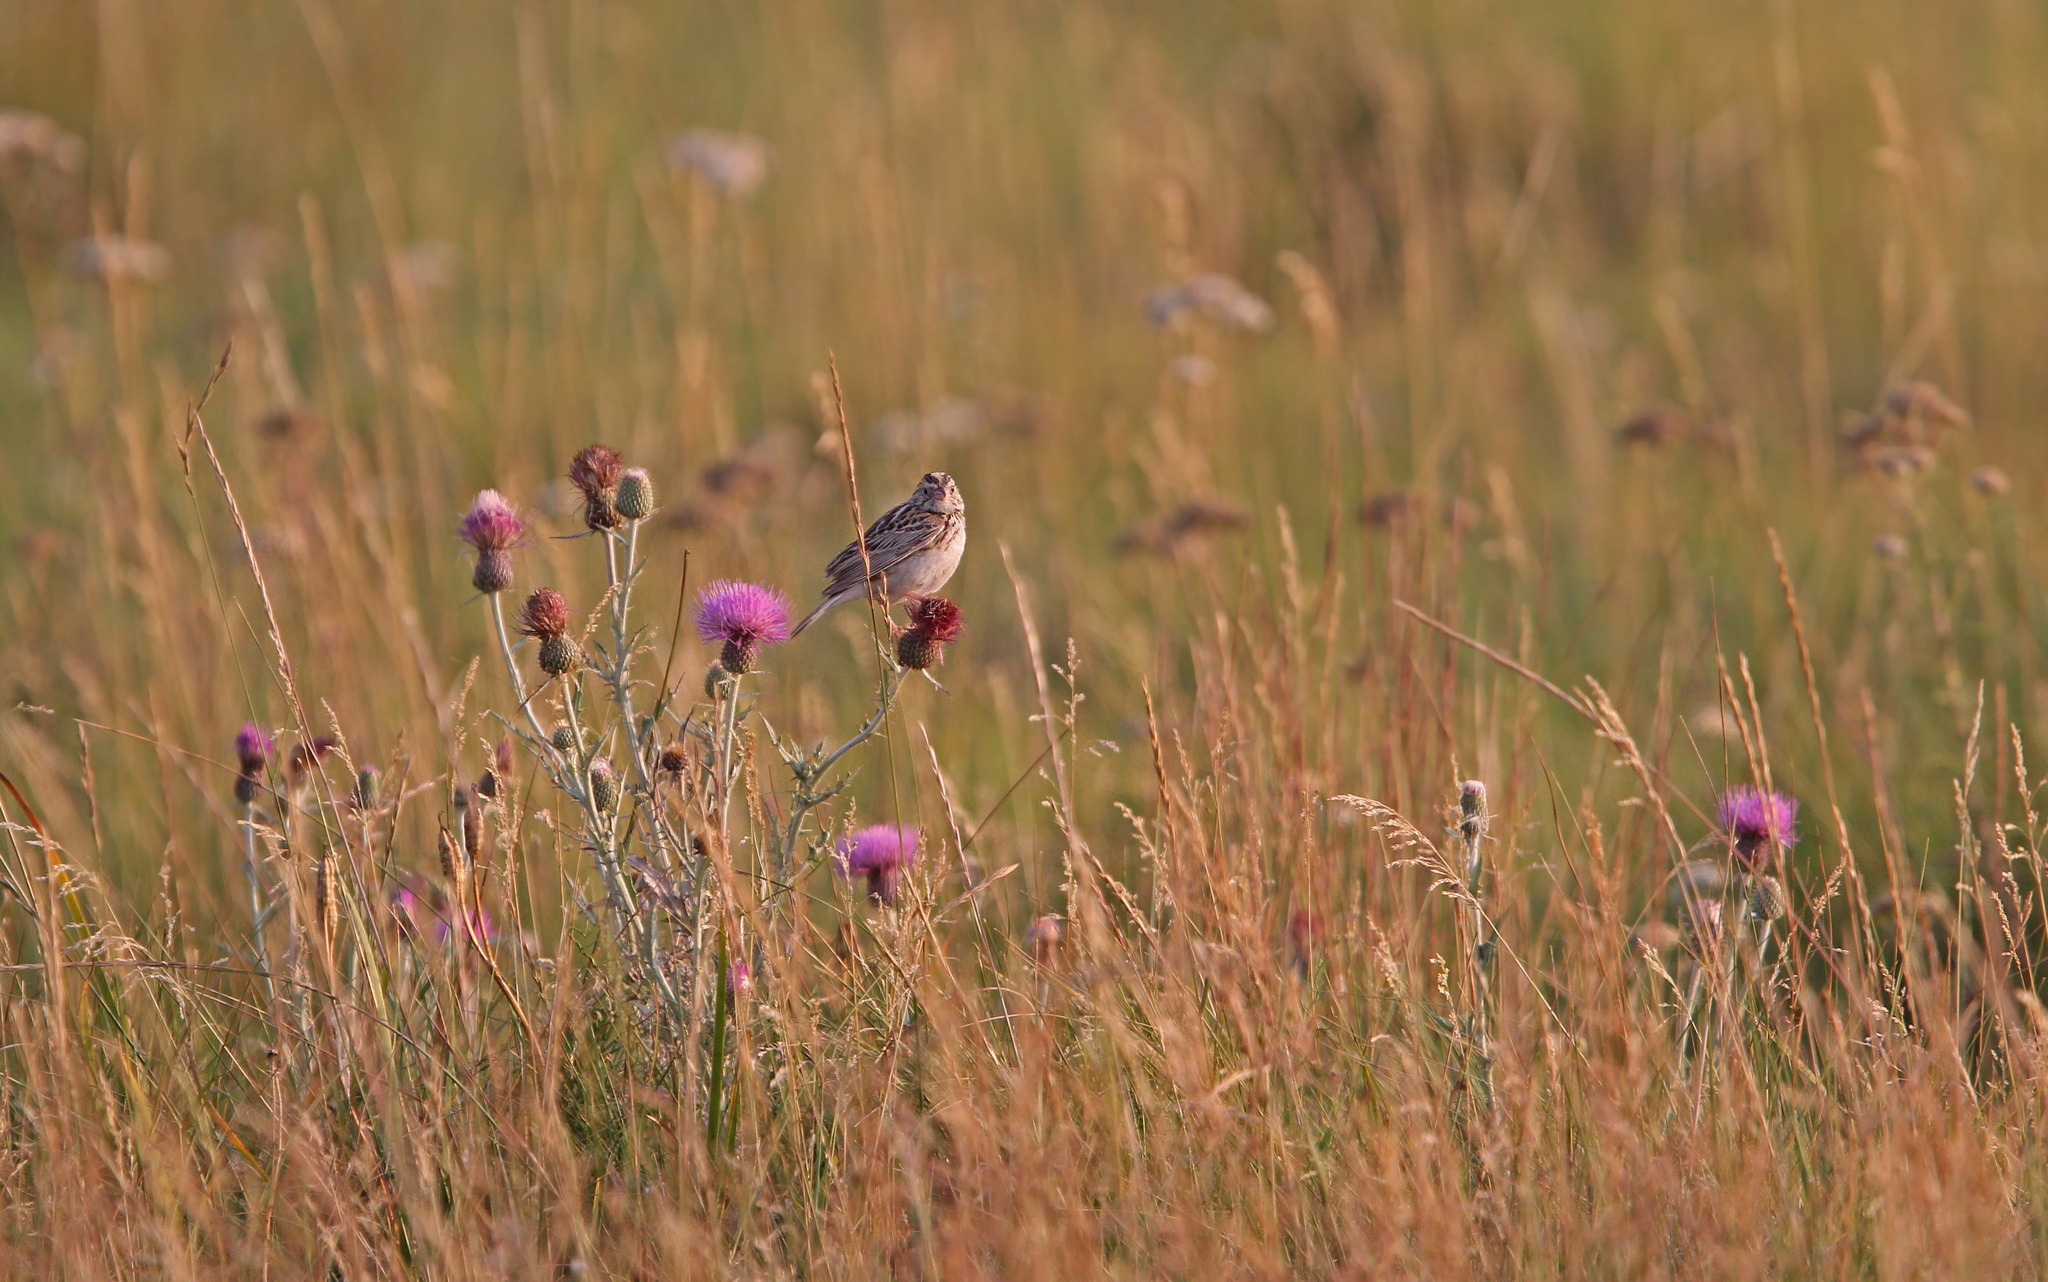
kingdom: Animalia
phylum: Chordata
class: Aves
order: Passeriformes
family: Passerellidae
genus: Centronyx
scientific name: Centronyx bairdii
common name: Baird's sparrow
